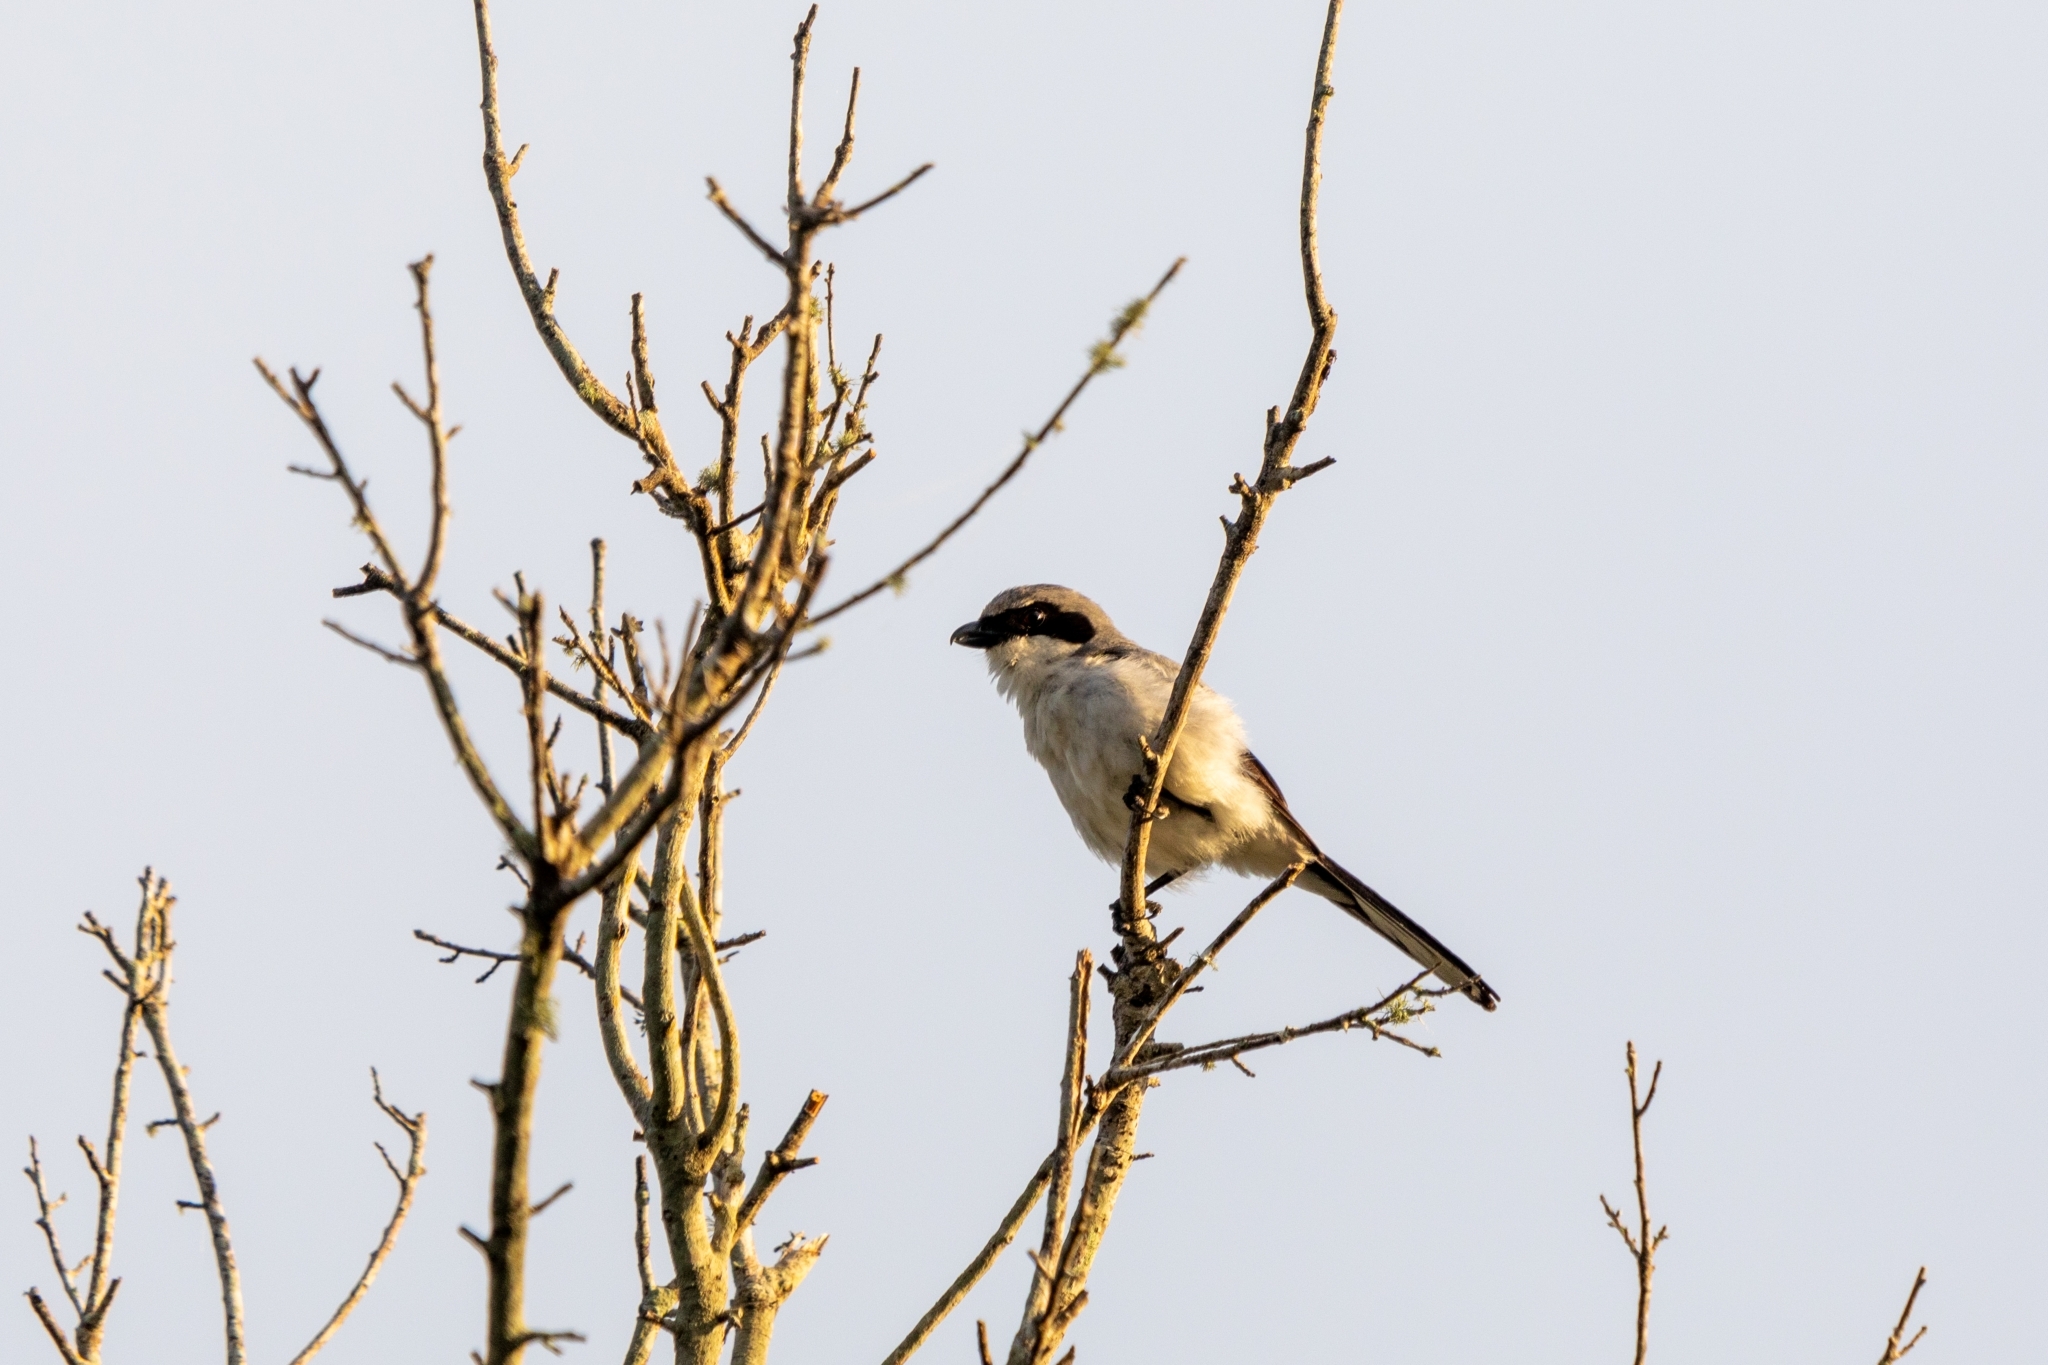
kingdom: Animalia
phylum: Chordata
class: Aves
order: Passeriformes
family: Laniidae
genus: Lanius
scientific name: Lanius ludovicianus
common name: Loggerhead shrike
